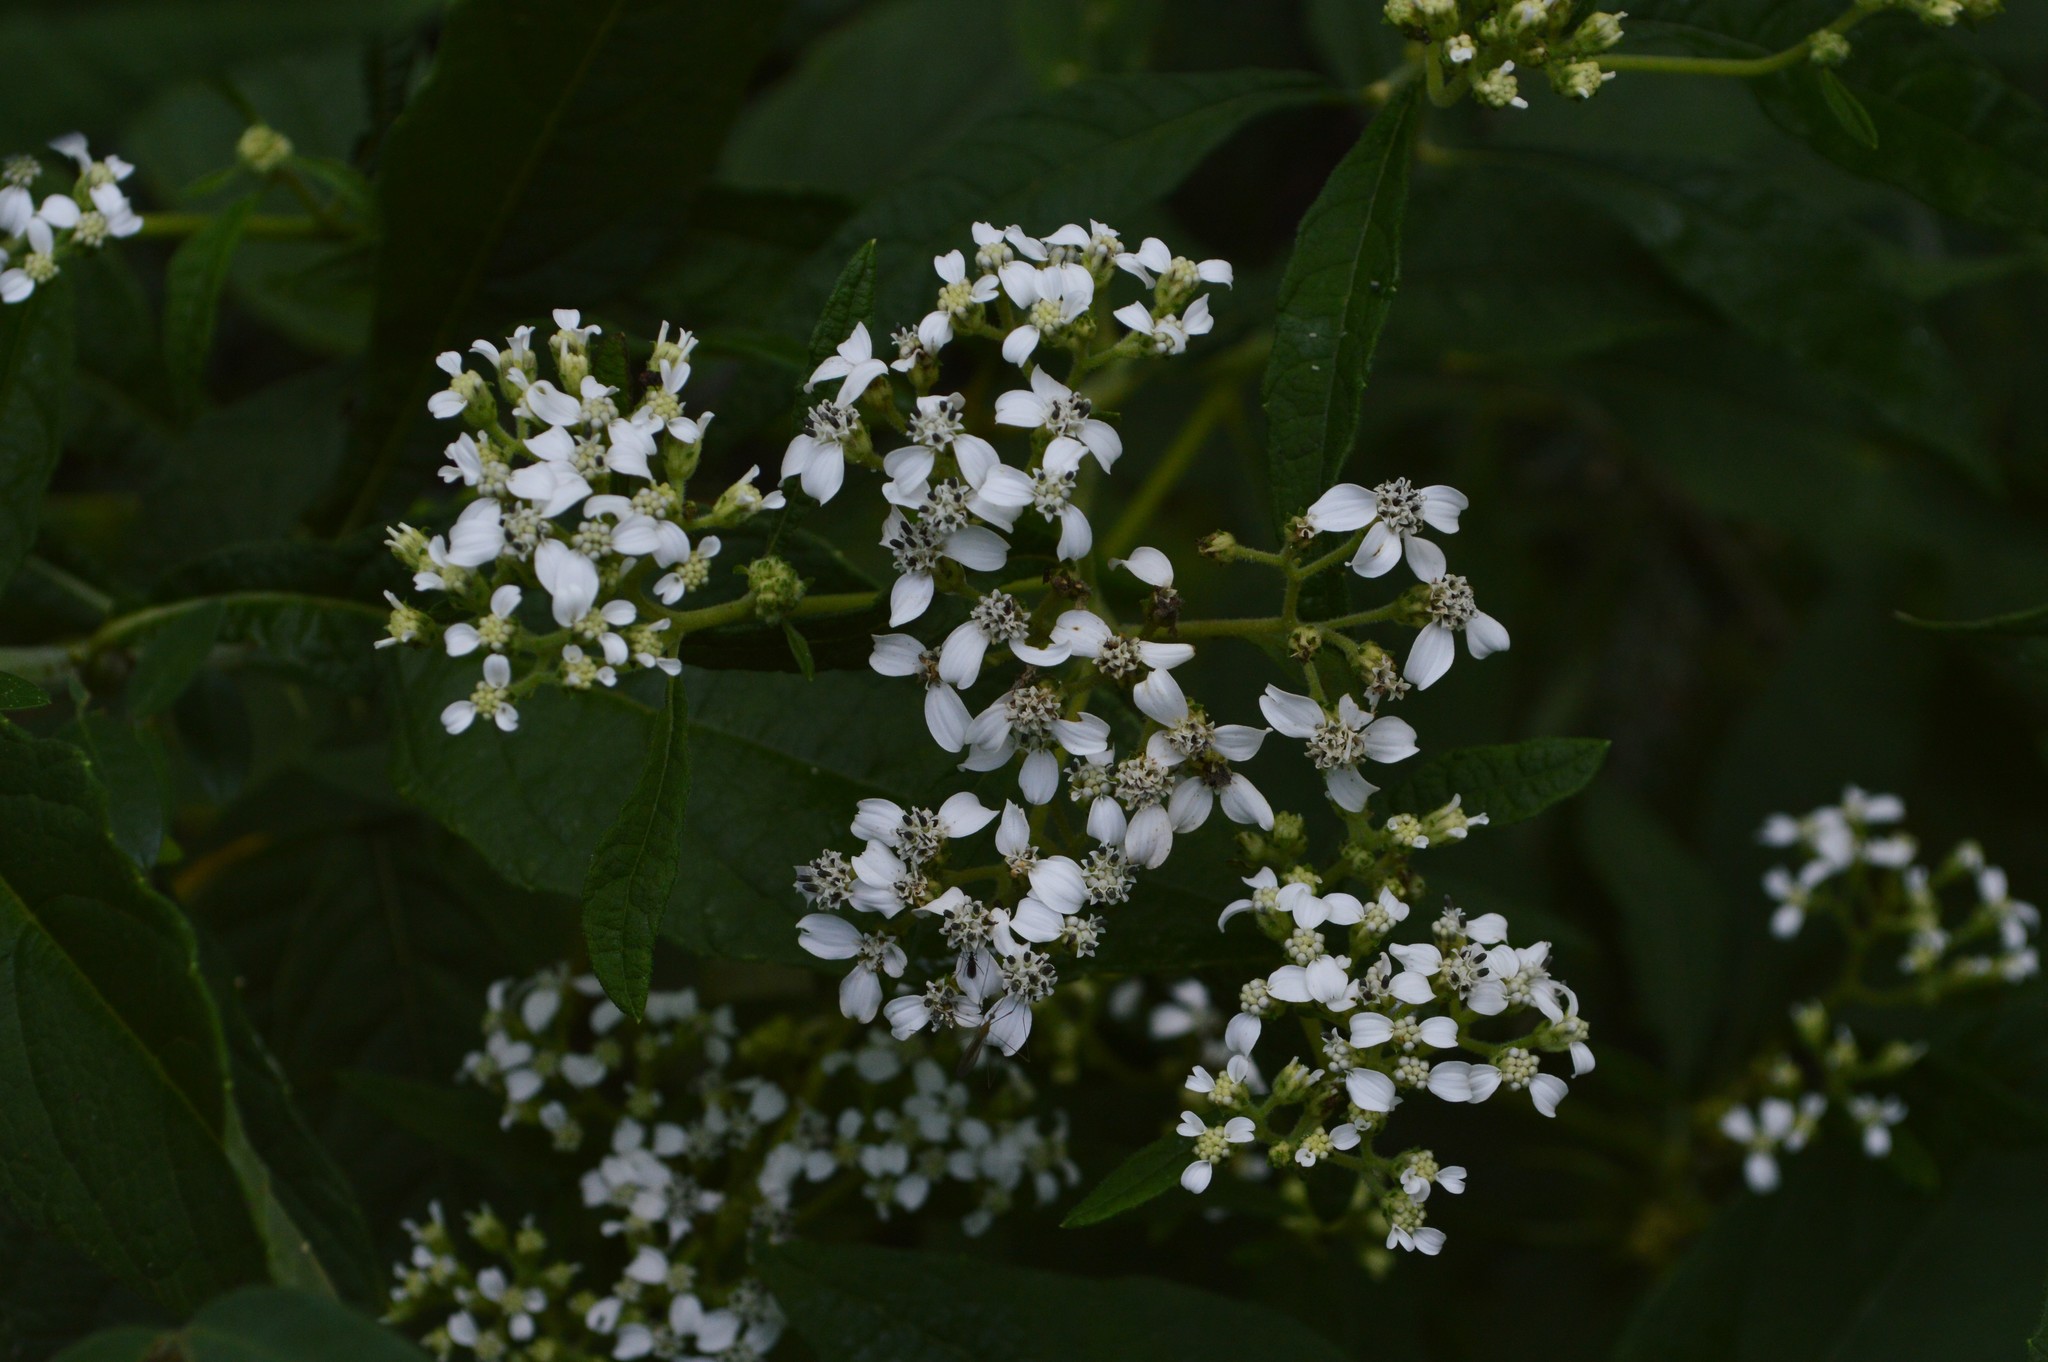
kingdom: Plantae
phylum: Tracheophyta
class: Magnoliopsida
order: Asterales
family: Asteraceae
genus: Verbesina
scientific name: Verbesina virginica
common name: Frostweed
